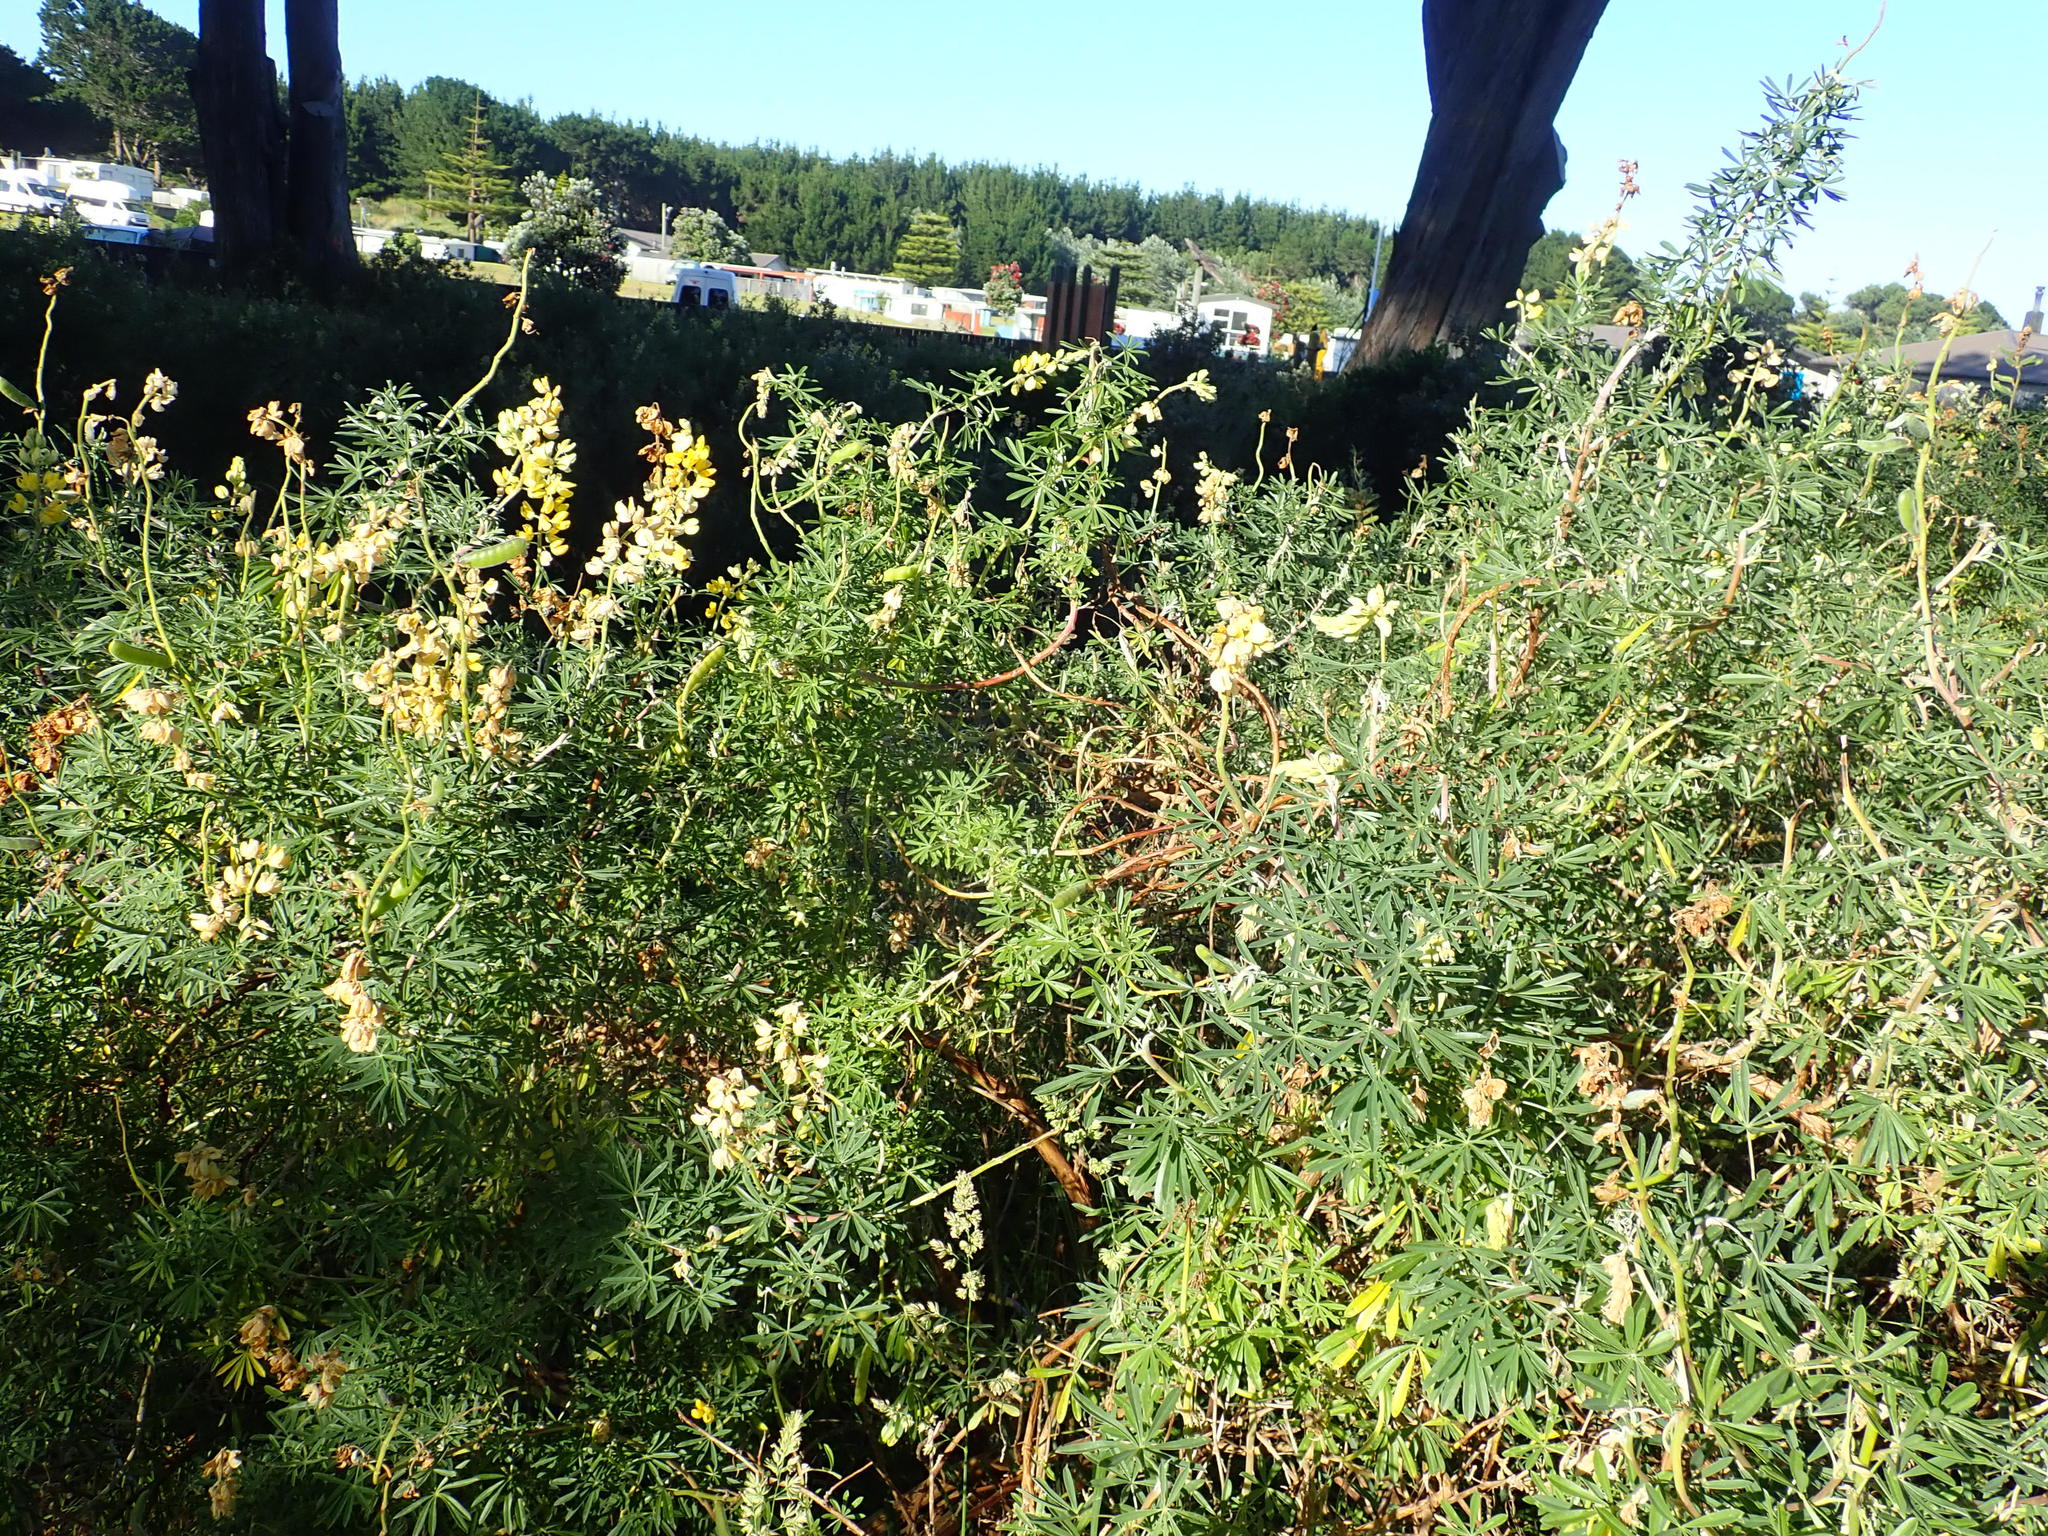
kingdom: Plantae
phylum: Tracheophyta
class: Magnoliopsida
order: Fabales
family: Fabaceae
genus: Lupinus
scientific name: Lupinus arboreus
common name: Yellow bush lupine
